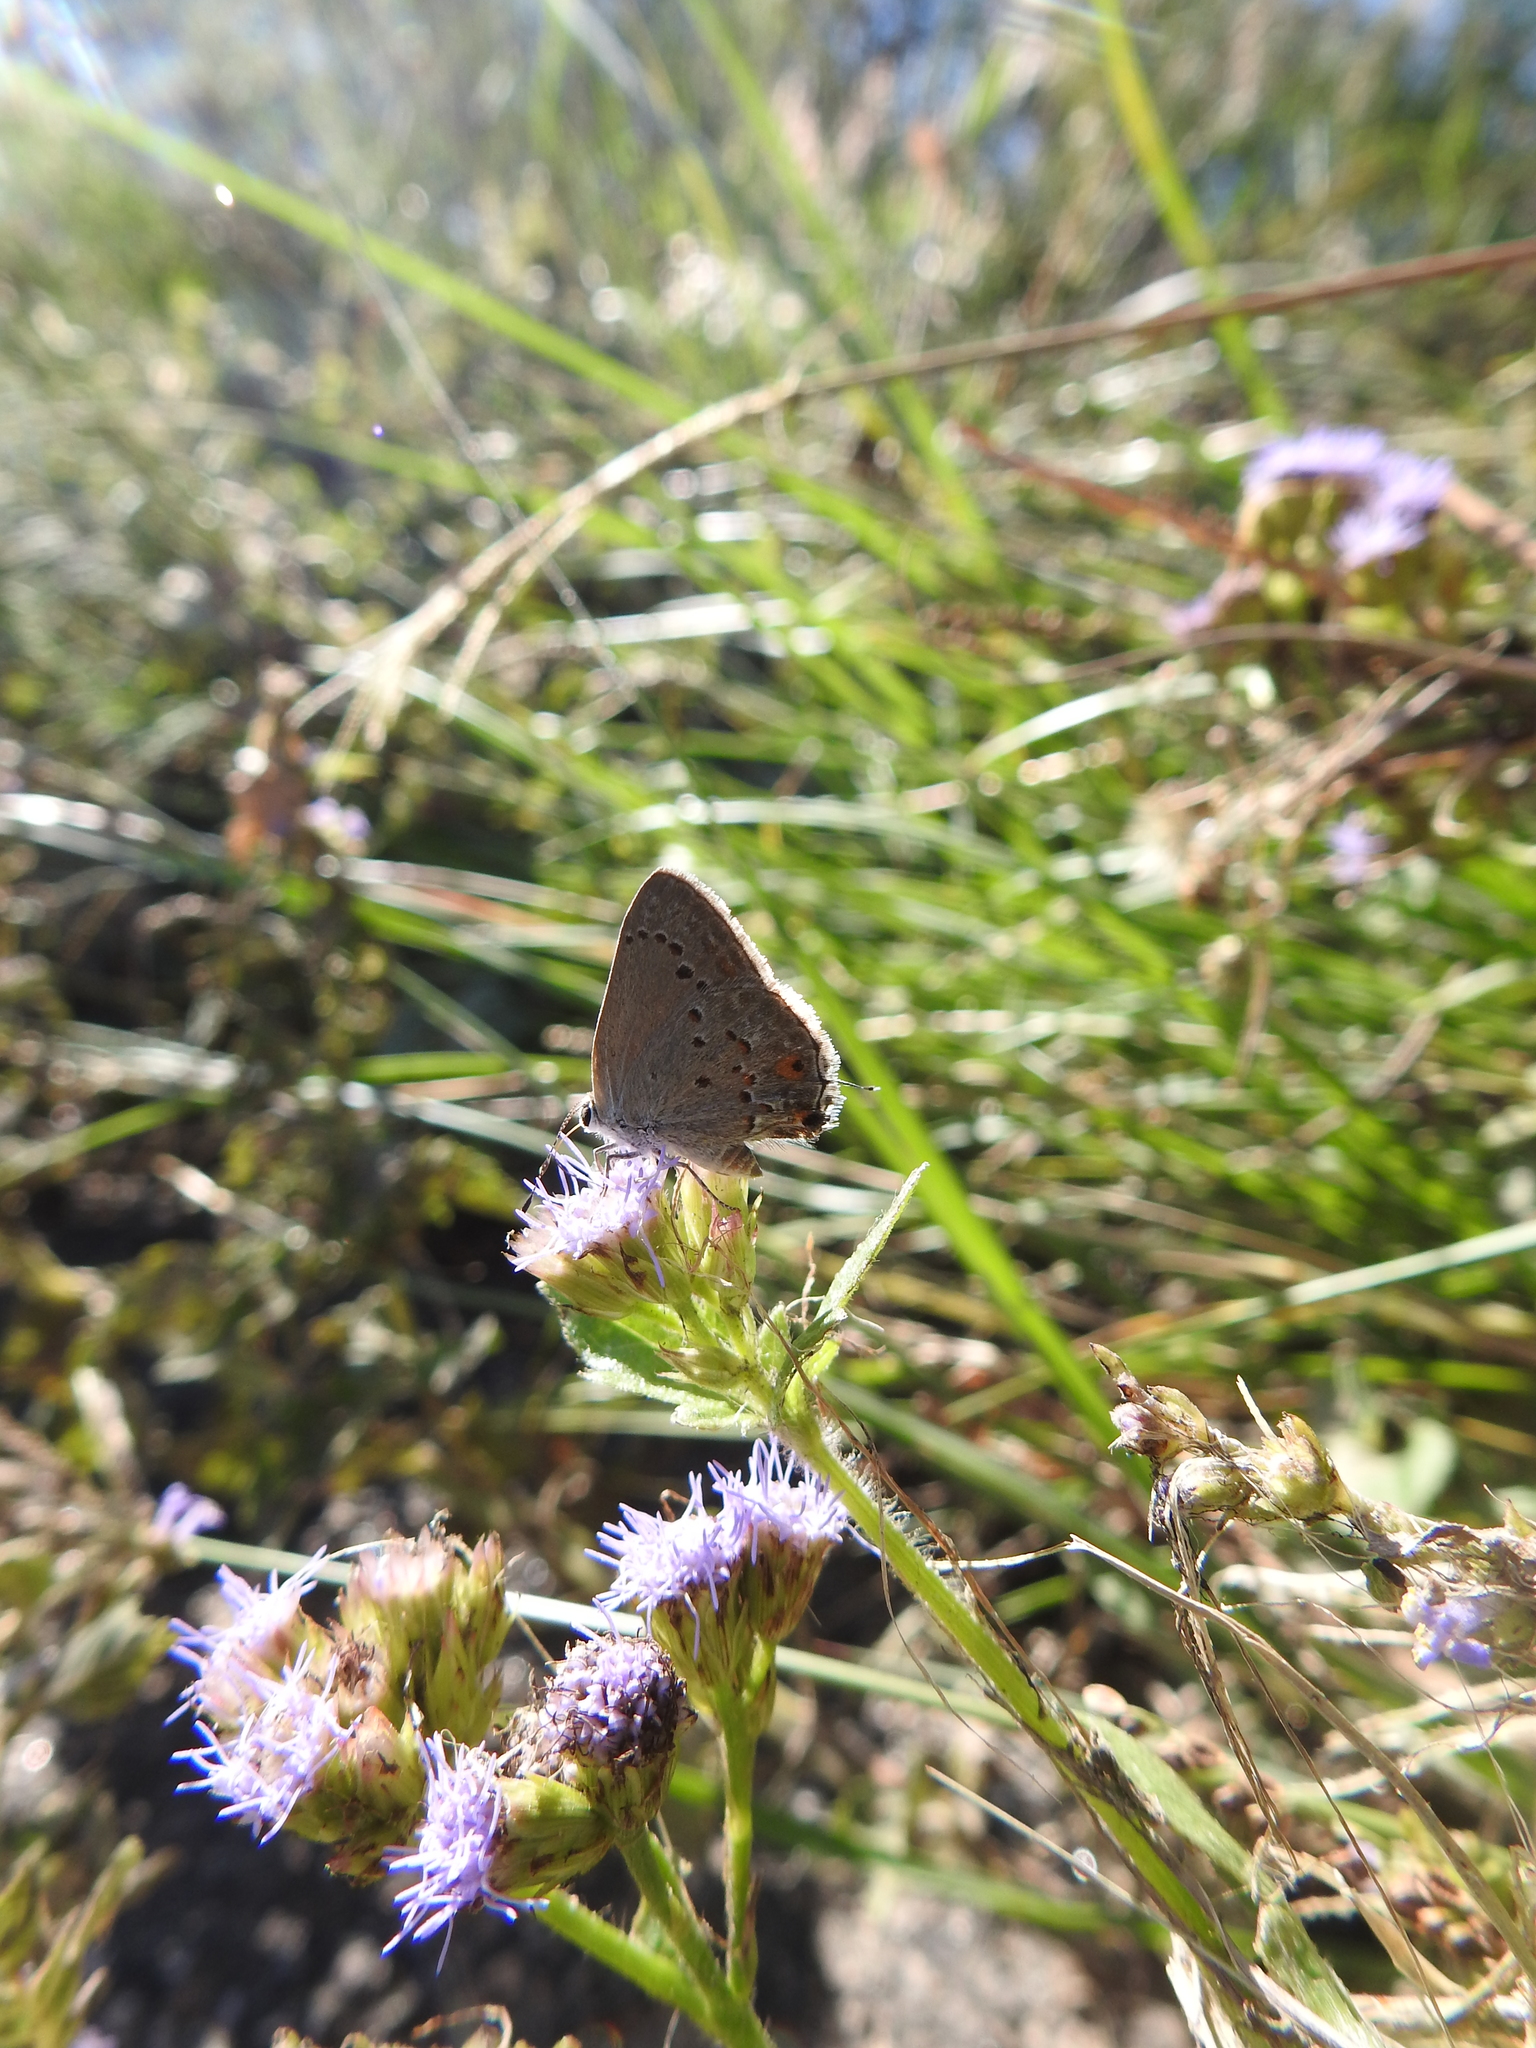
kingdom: Animalia
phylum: Arthropoda
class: Insecta
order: Lepidoptera
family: Lycaenidae
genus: Strymon
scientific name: Strymon eurytulus
